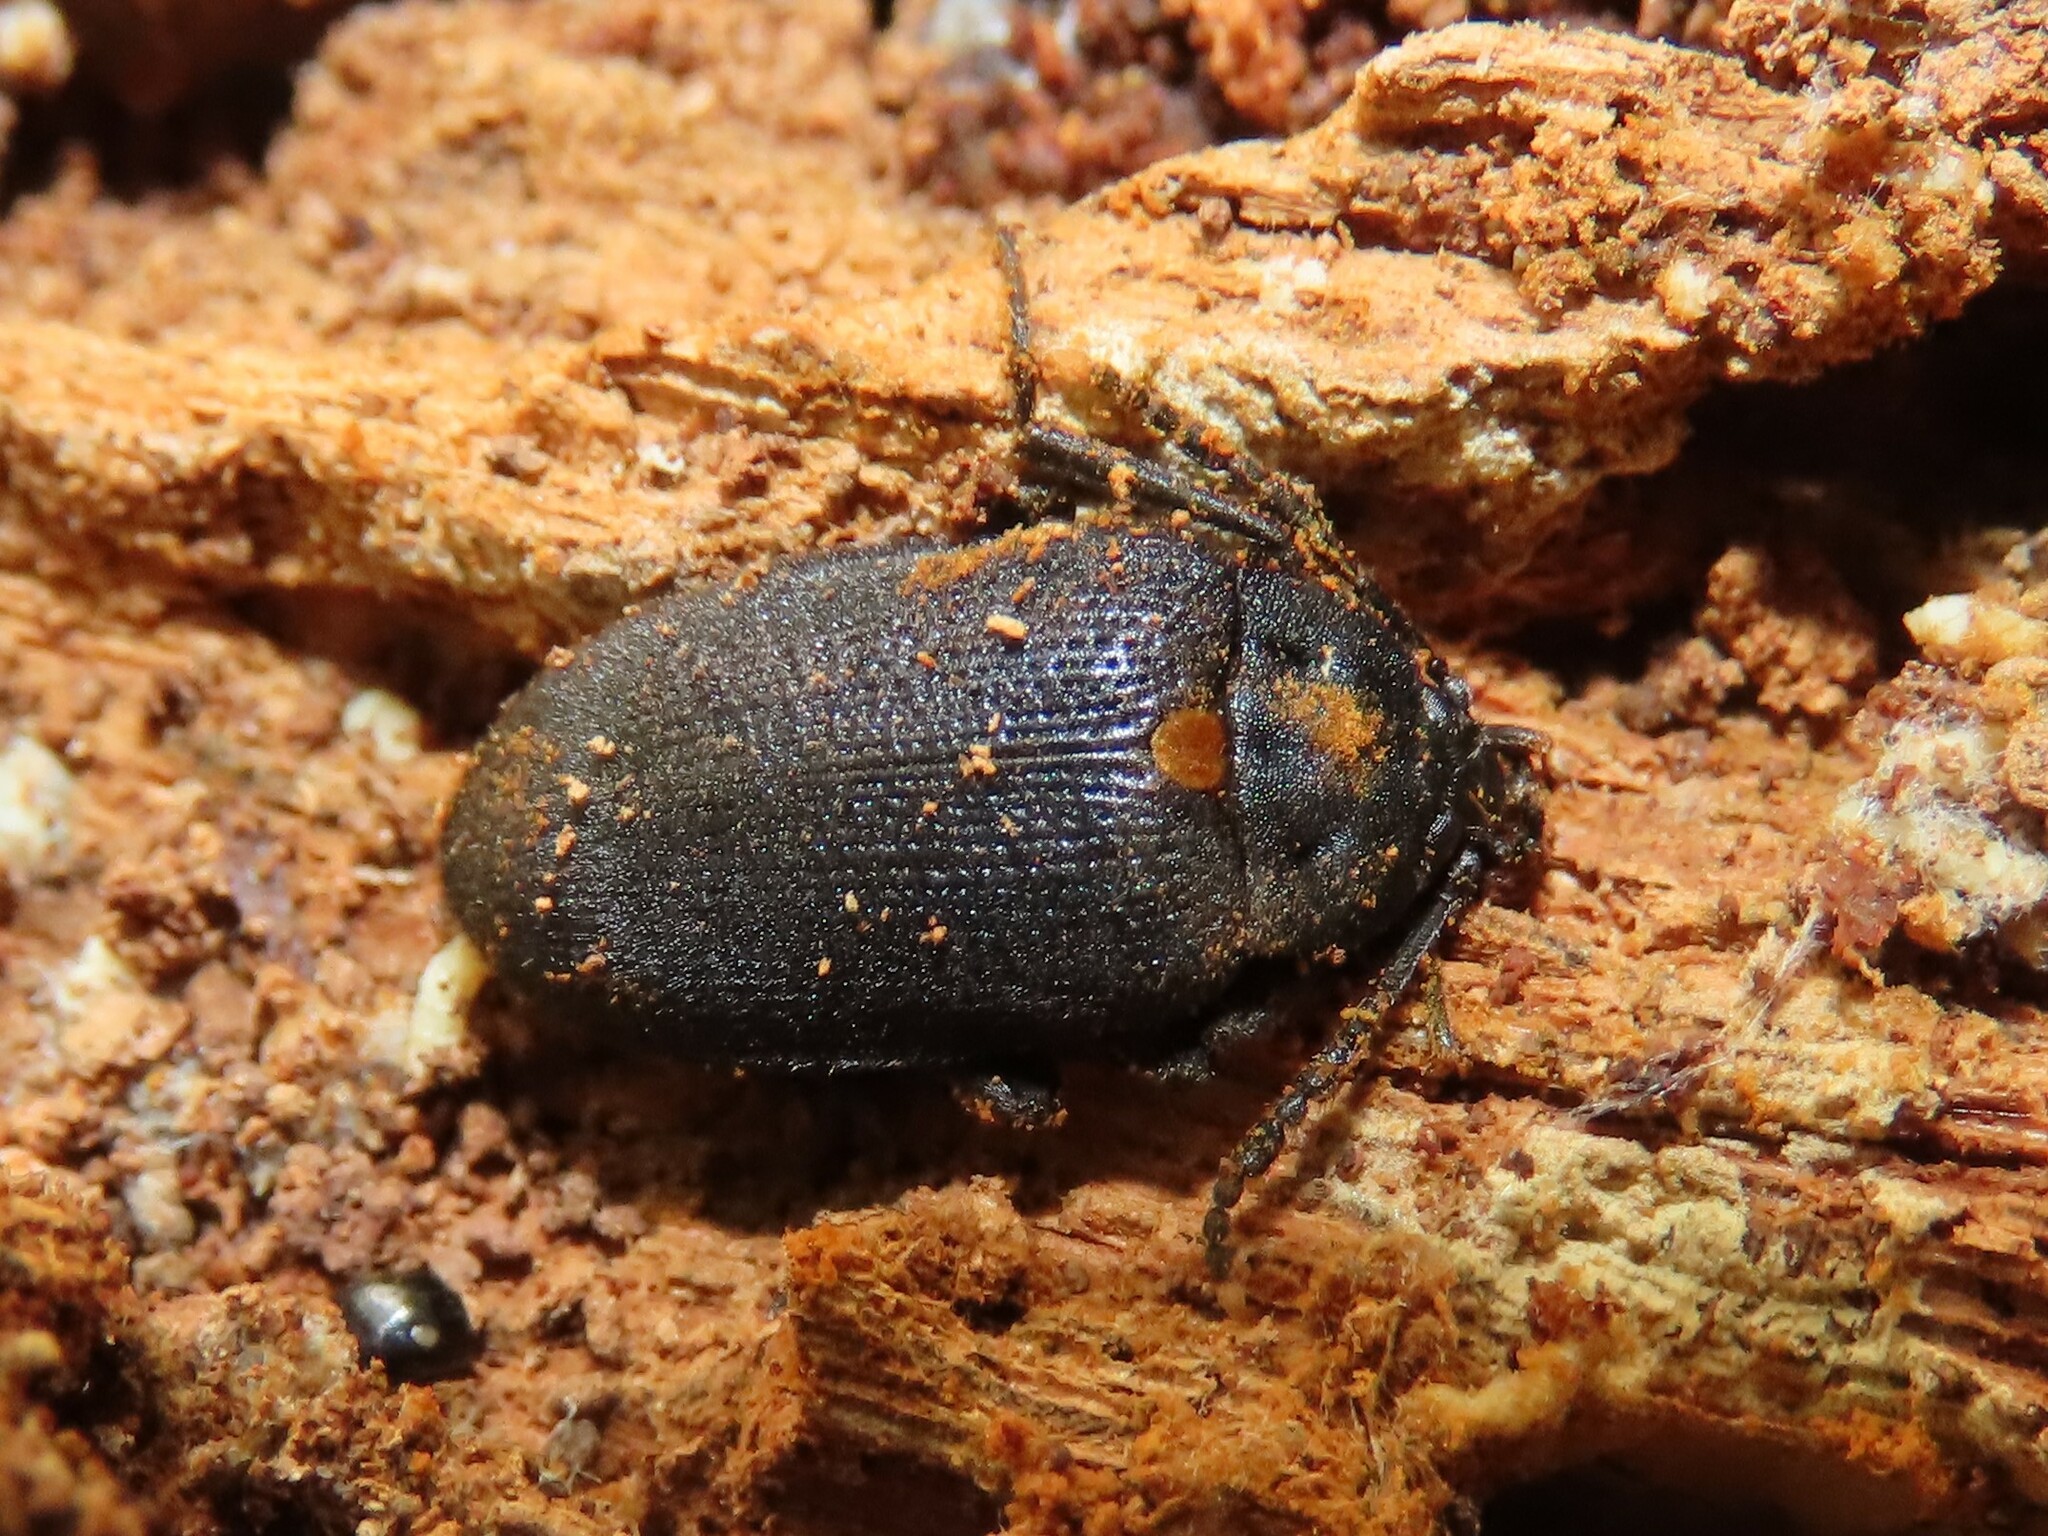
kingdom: Animalia
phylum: Arthropoda
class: Insecta
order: Coleoptera
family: Tetratomidae
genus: Penthe
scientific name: Penthe obliquata
